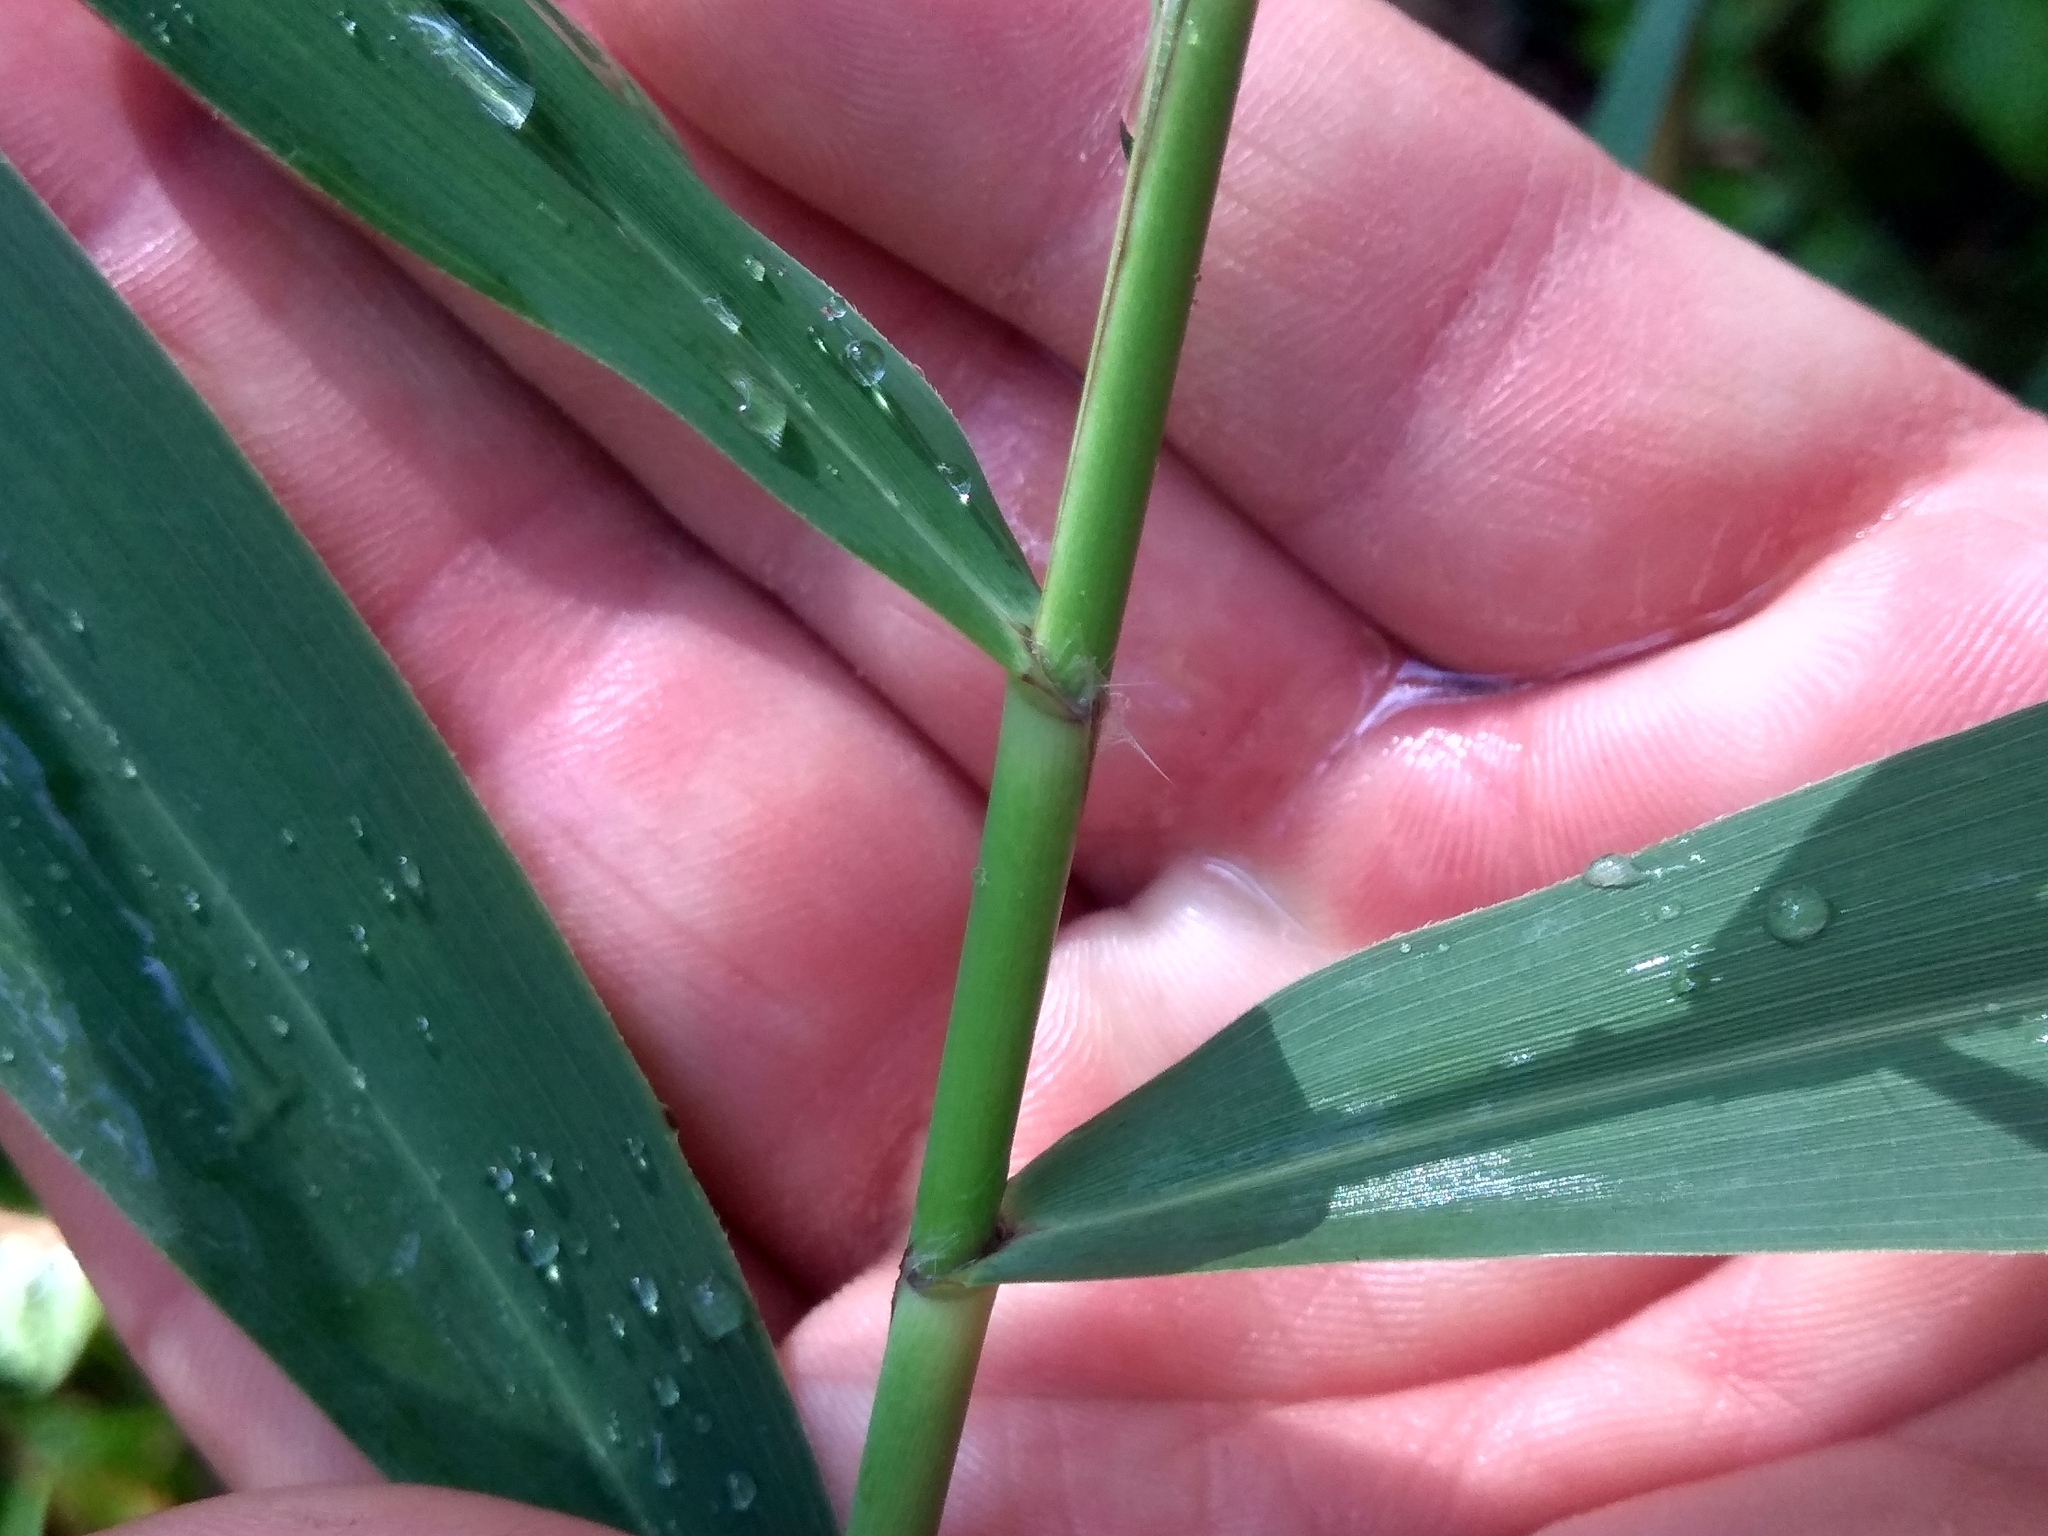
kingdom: Plantae
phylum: Tracheophyta
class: Liliopsida
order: Poales
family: Poaceae
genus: Phragmites
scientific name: Phragmites australis
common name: Common reed
